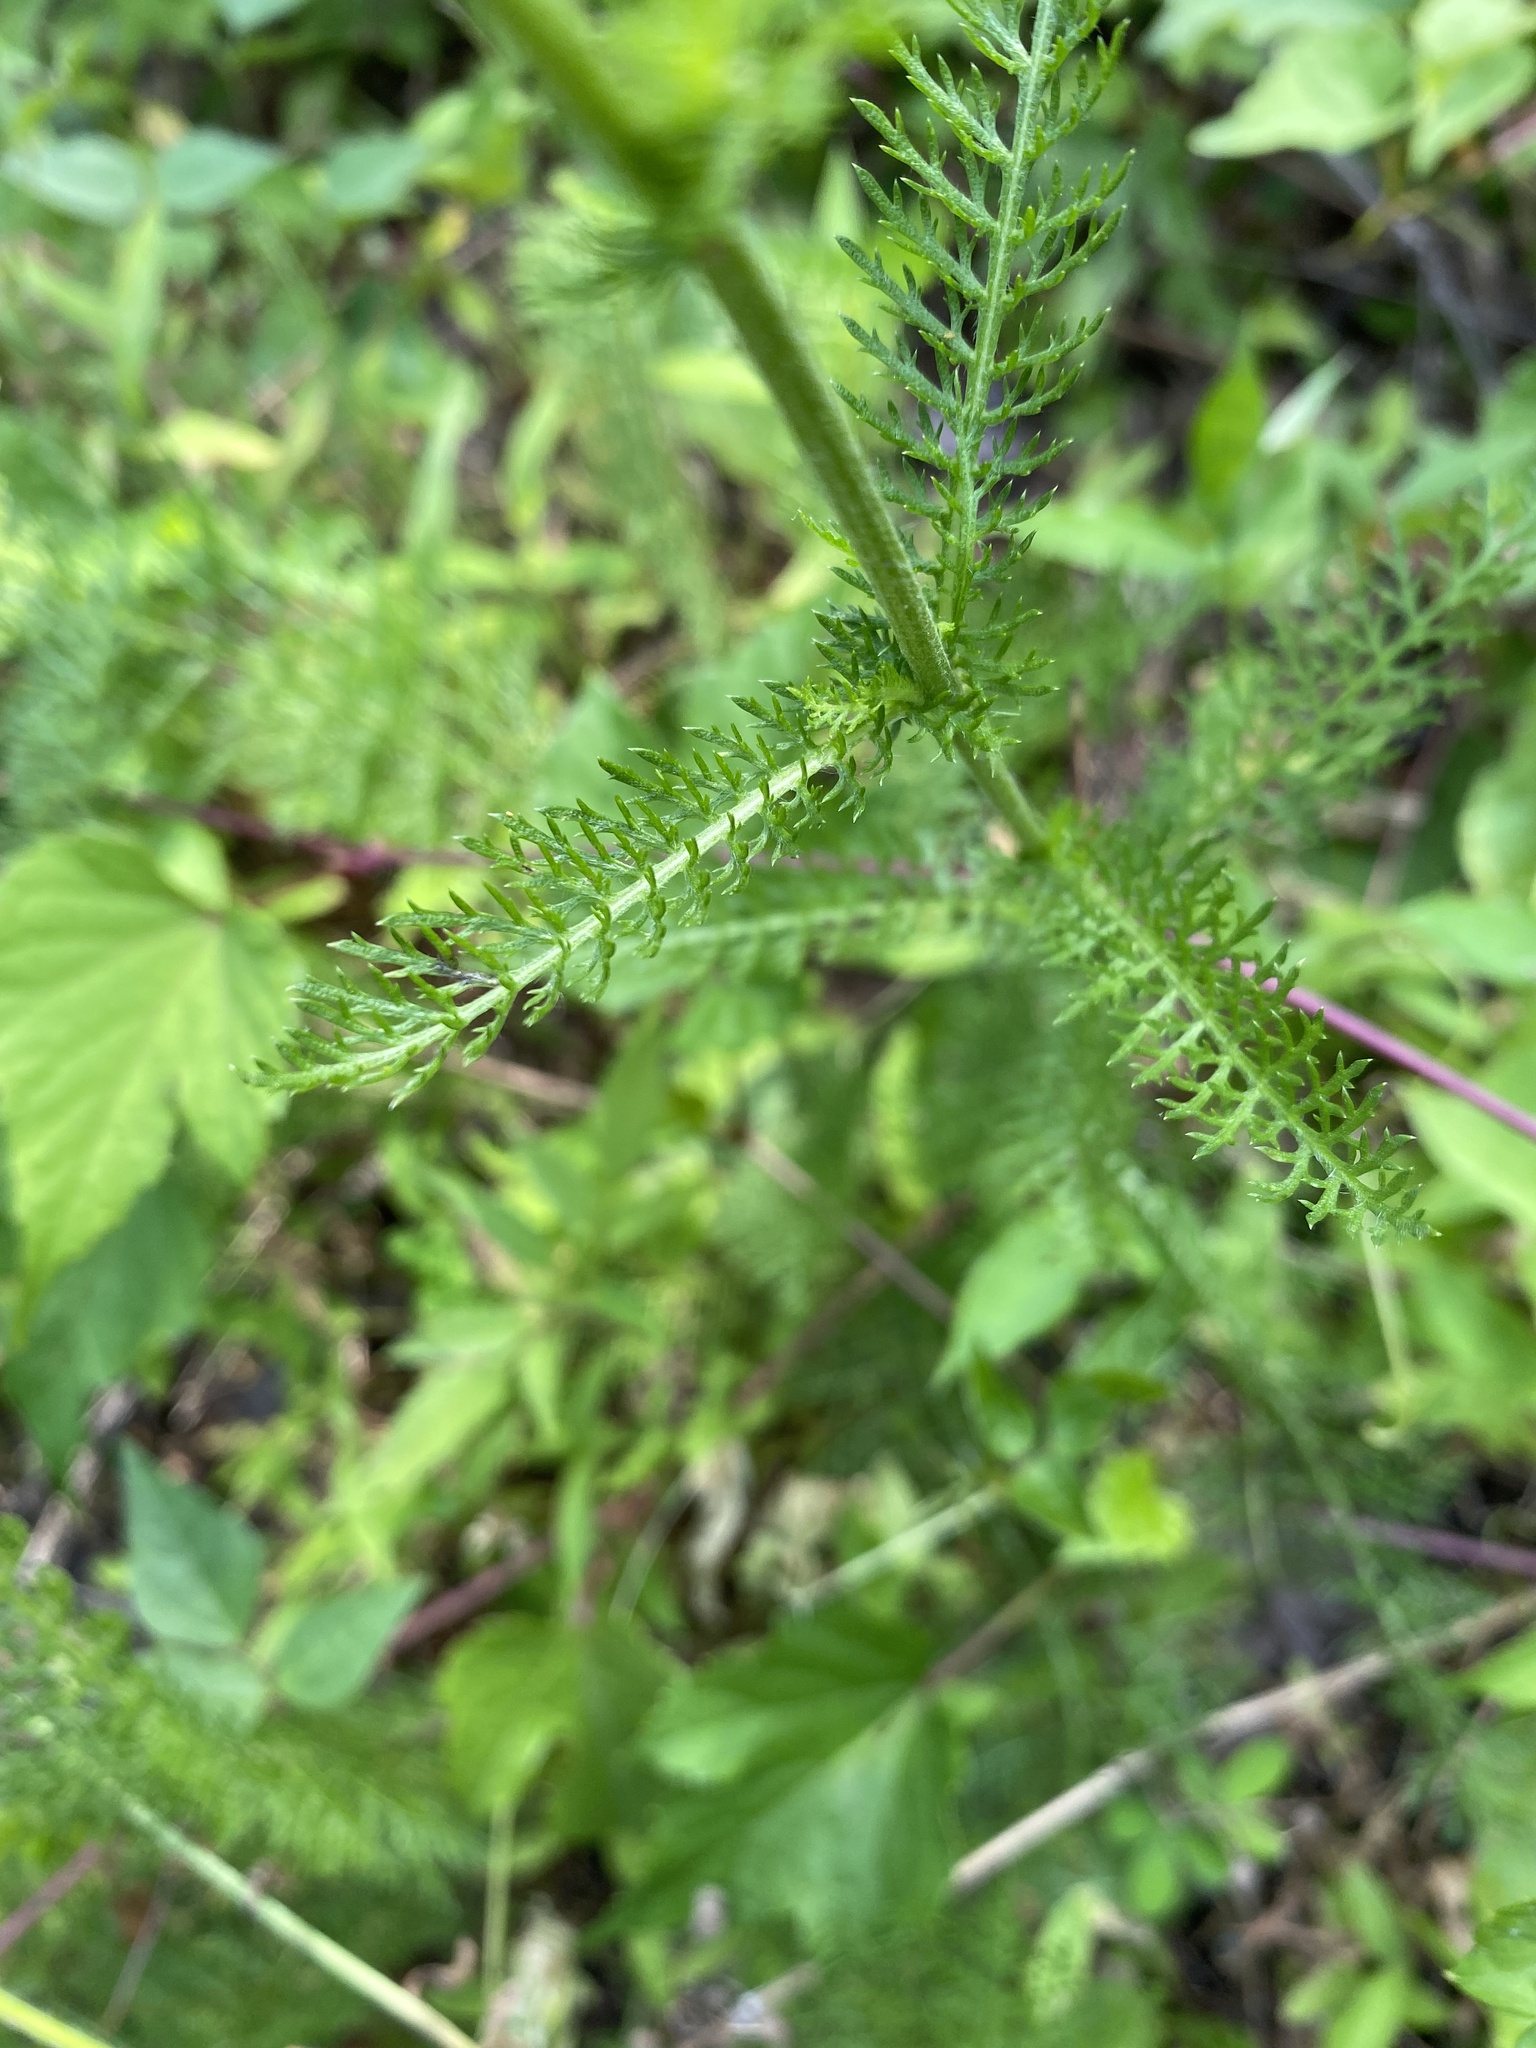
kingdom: Plantae
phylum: Tracheophyta
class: Magnoliopsida
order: Asterales
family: Asteraceae
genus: Achillea
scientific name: Achillea millefolium
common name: Yarrow
